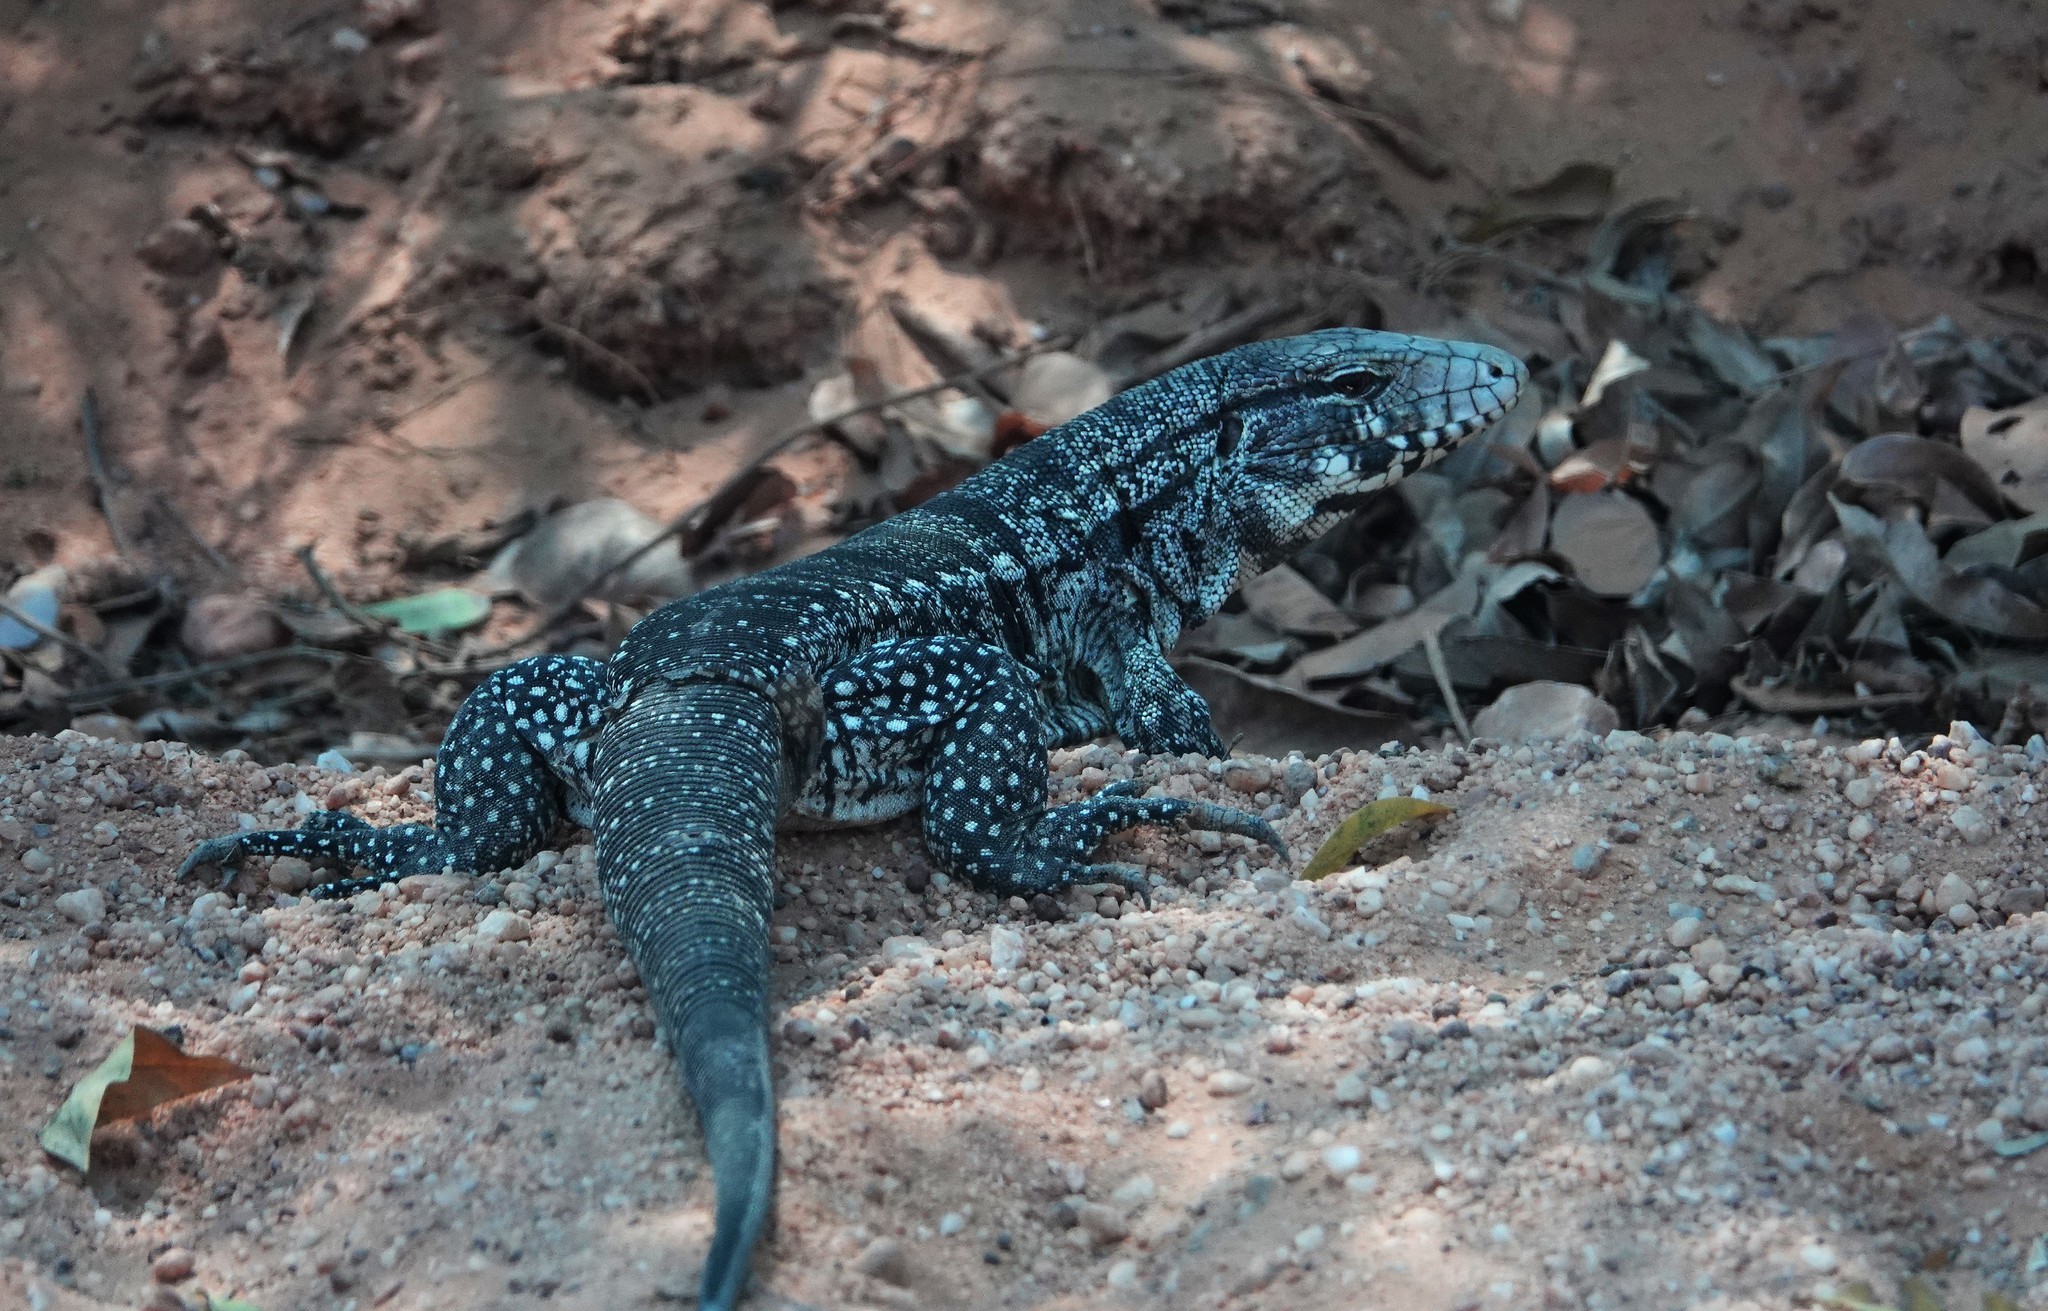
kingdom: Animalia
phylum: Chordata
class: Squamata
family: Teiidae
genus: Salvator
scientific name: Salvator merianae
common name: Argentine black and white tegu
